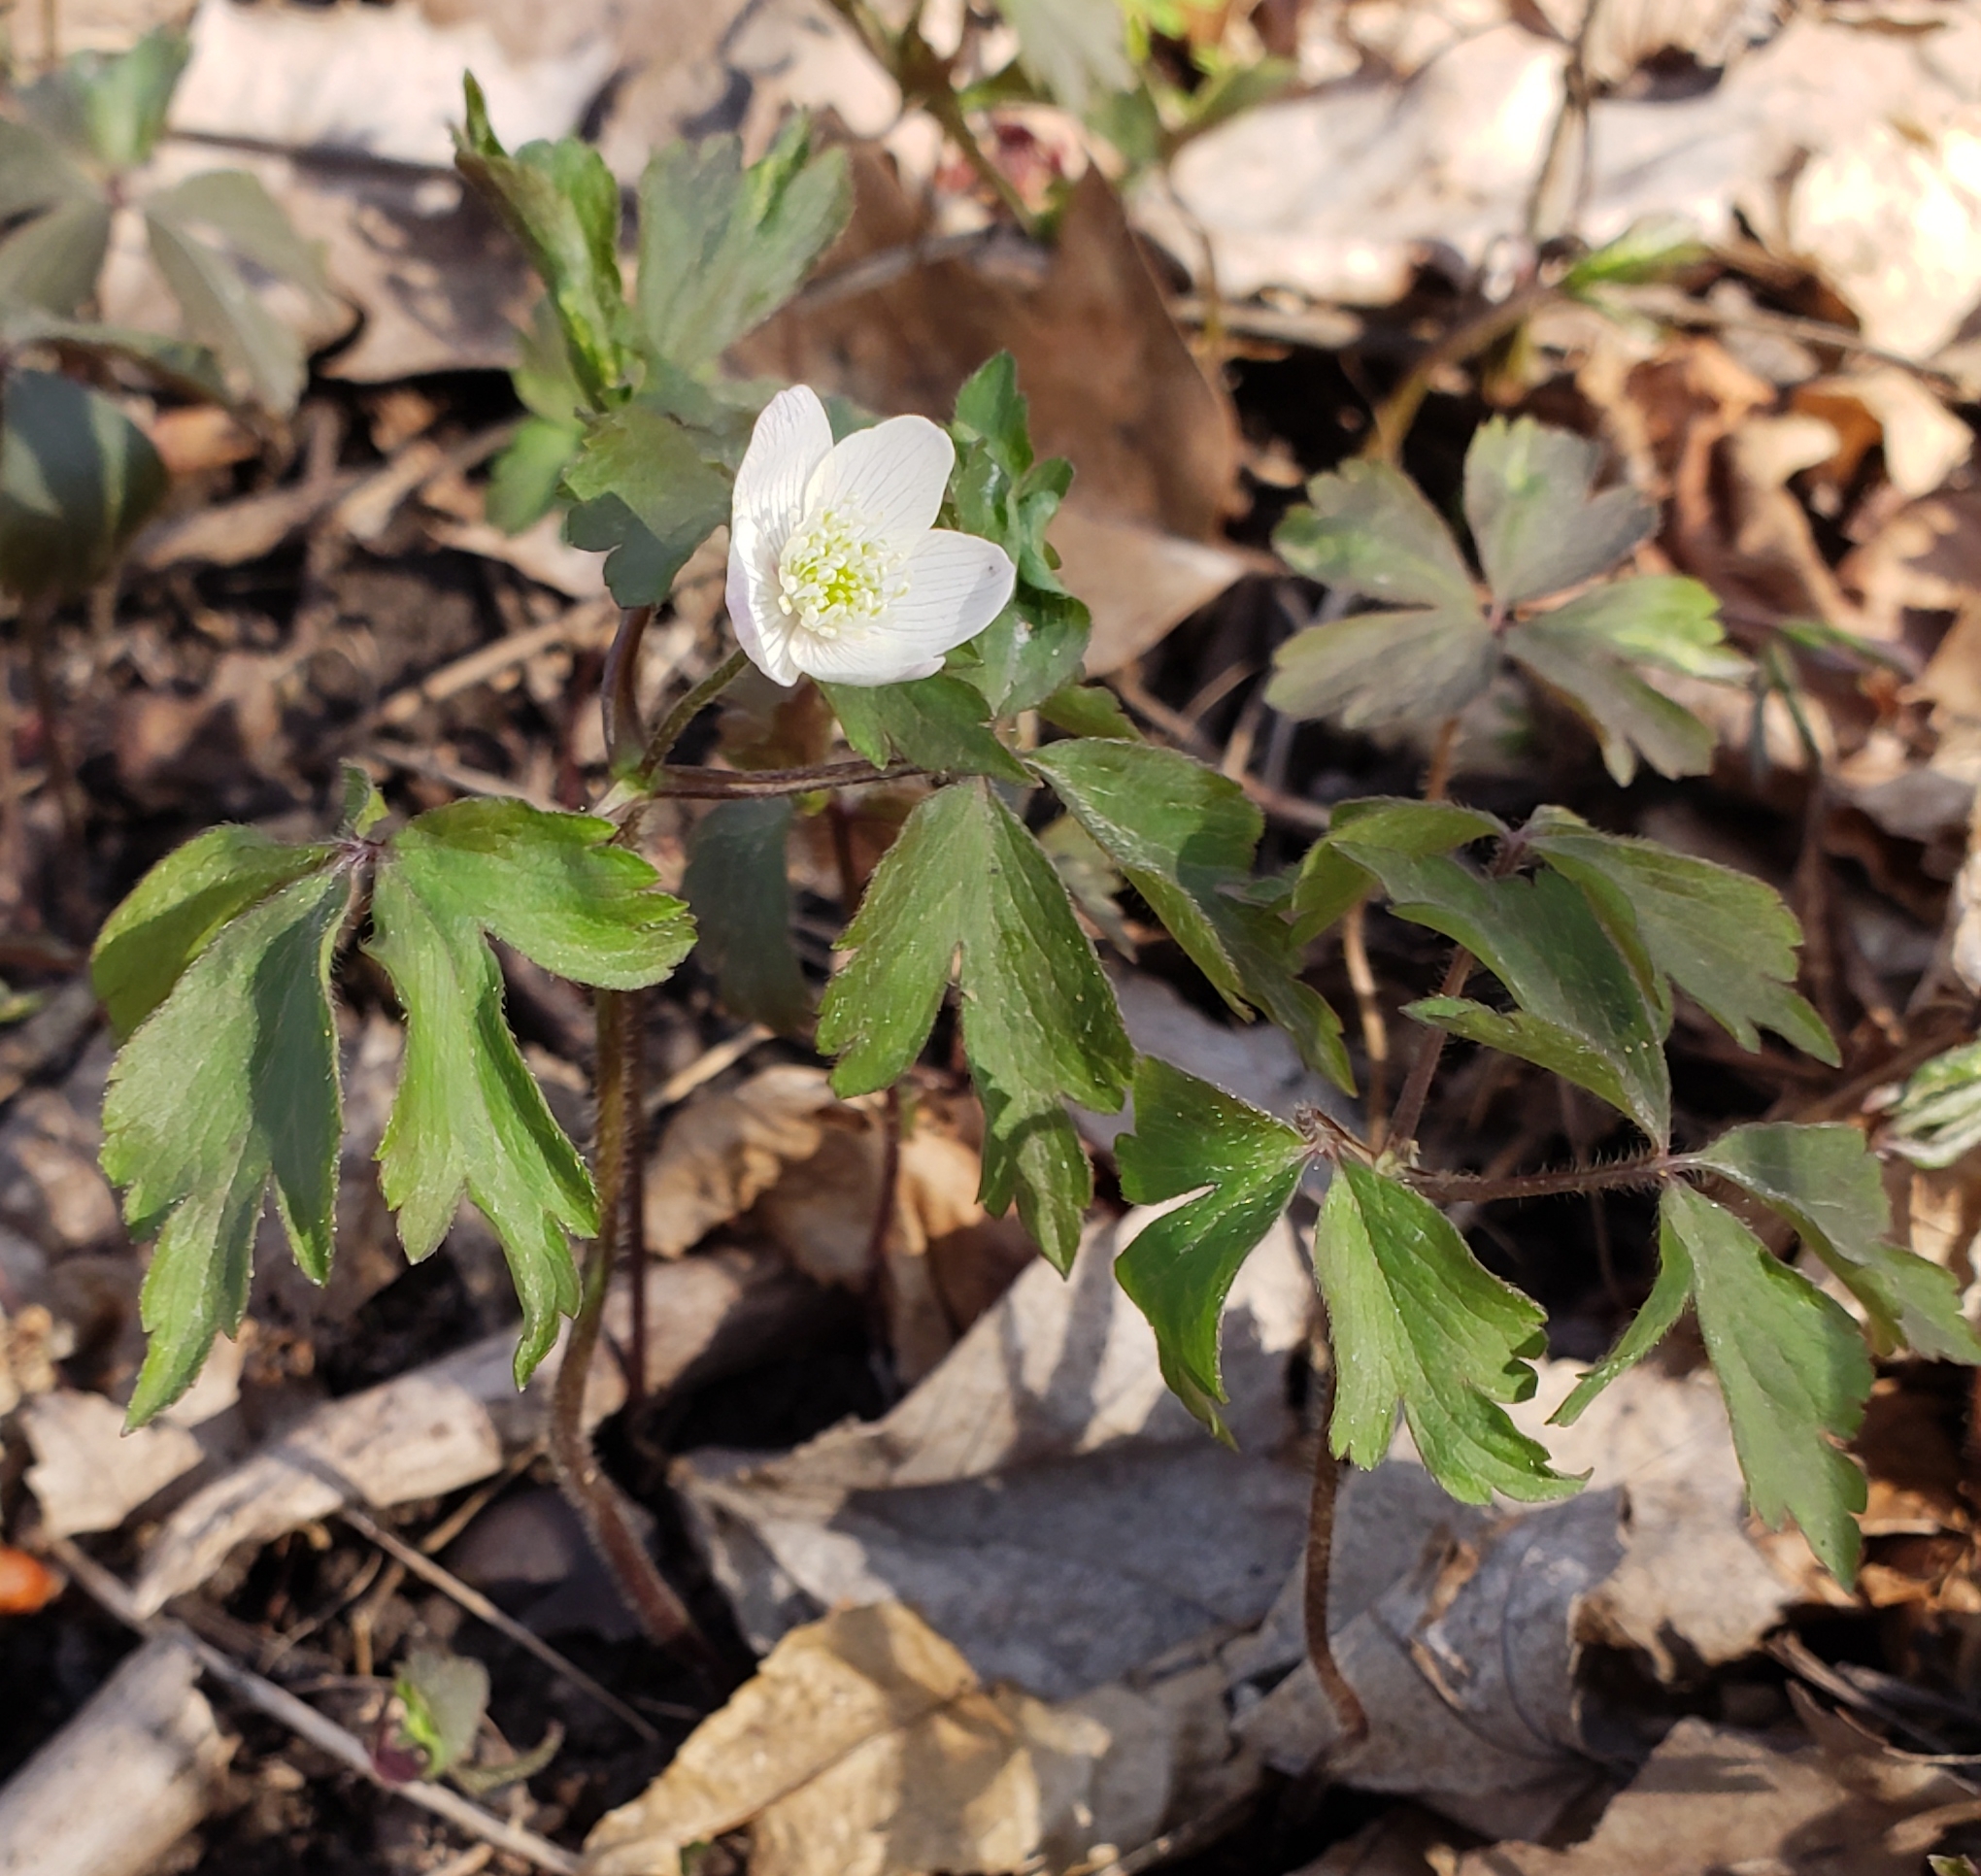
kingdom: Plantae
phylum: Tracheophyta
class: Magnoliopsida
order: Ranunculales
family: Ranunculaceae
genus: Anemone
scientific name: Anemone quinquefolia
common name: Wood anemone
